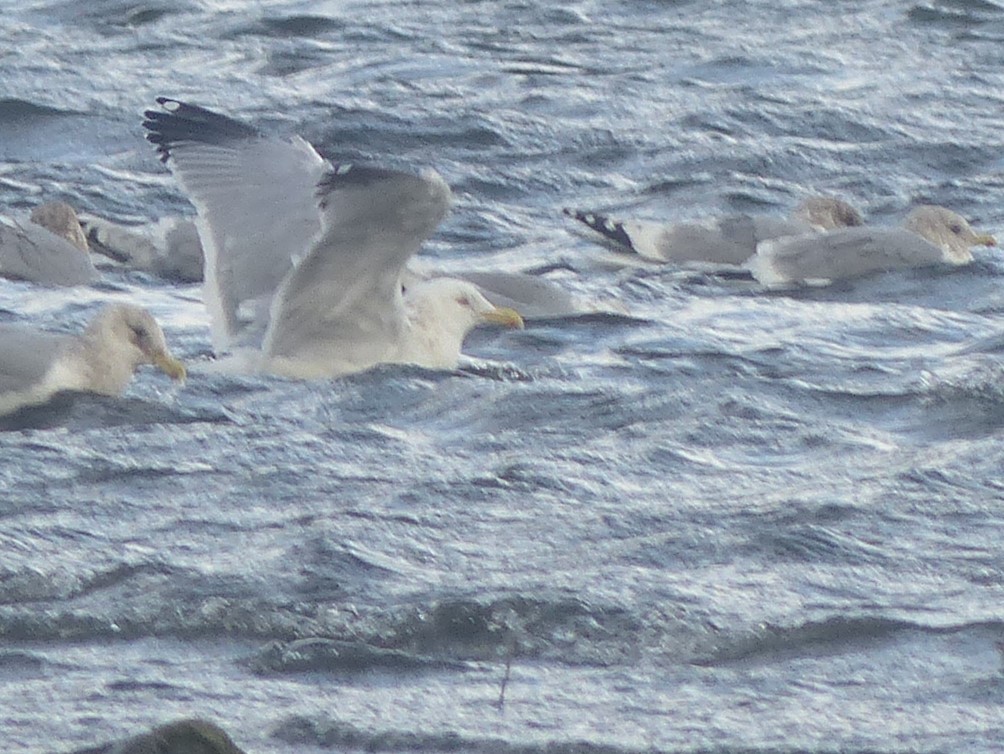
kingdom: Animalia
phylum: Chordata
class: Aves
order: Charadriiformes
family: Laridae
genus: Larus
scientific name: Larus argentatus
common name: Herring gull
